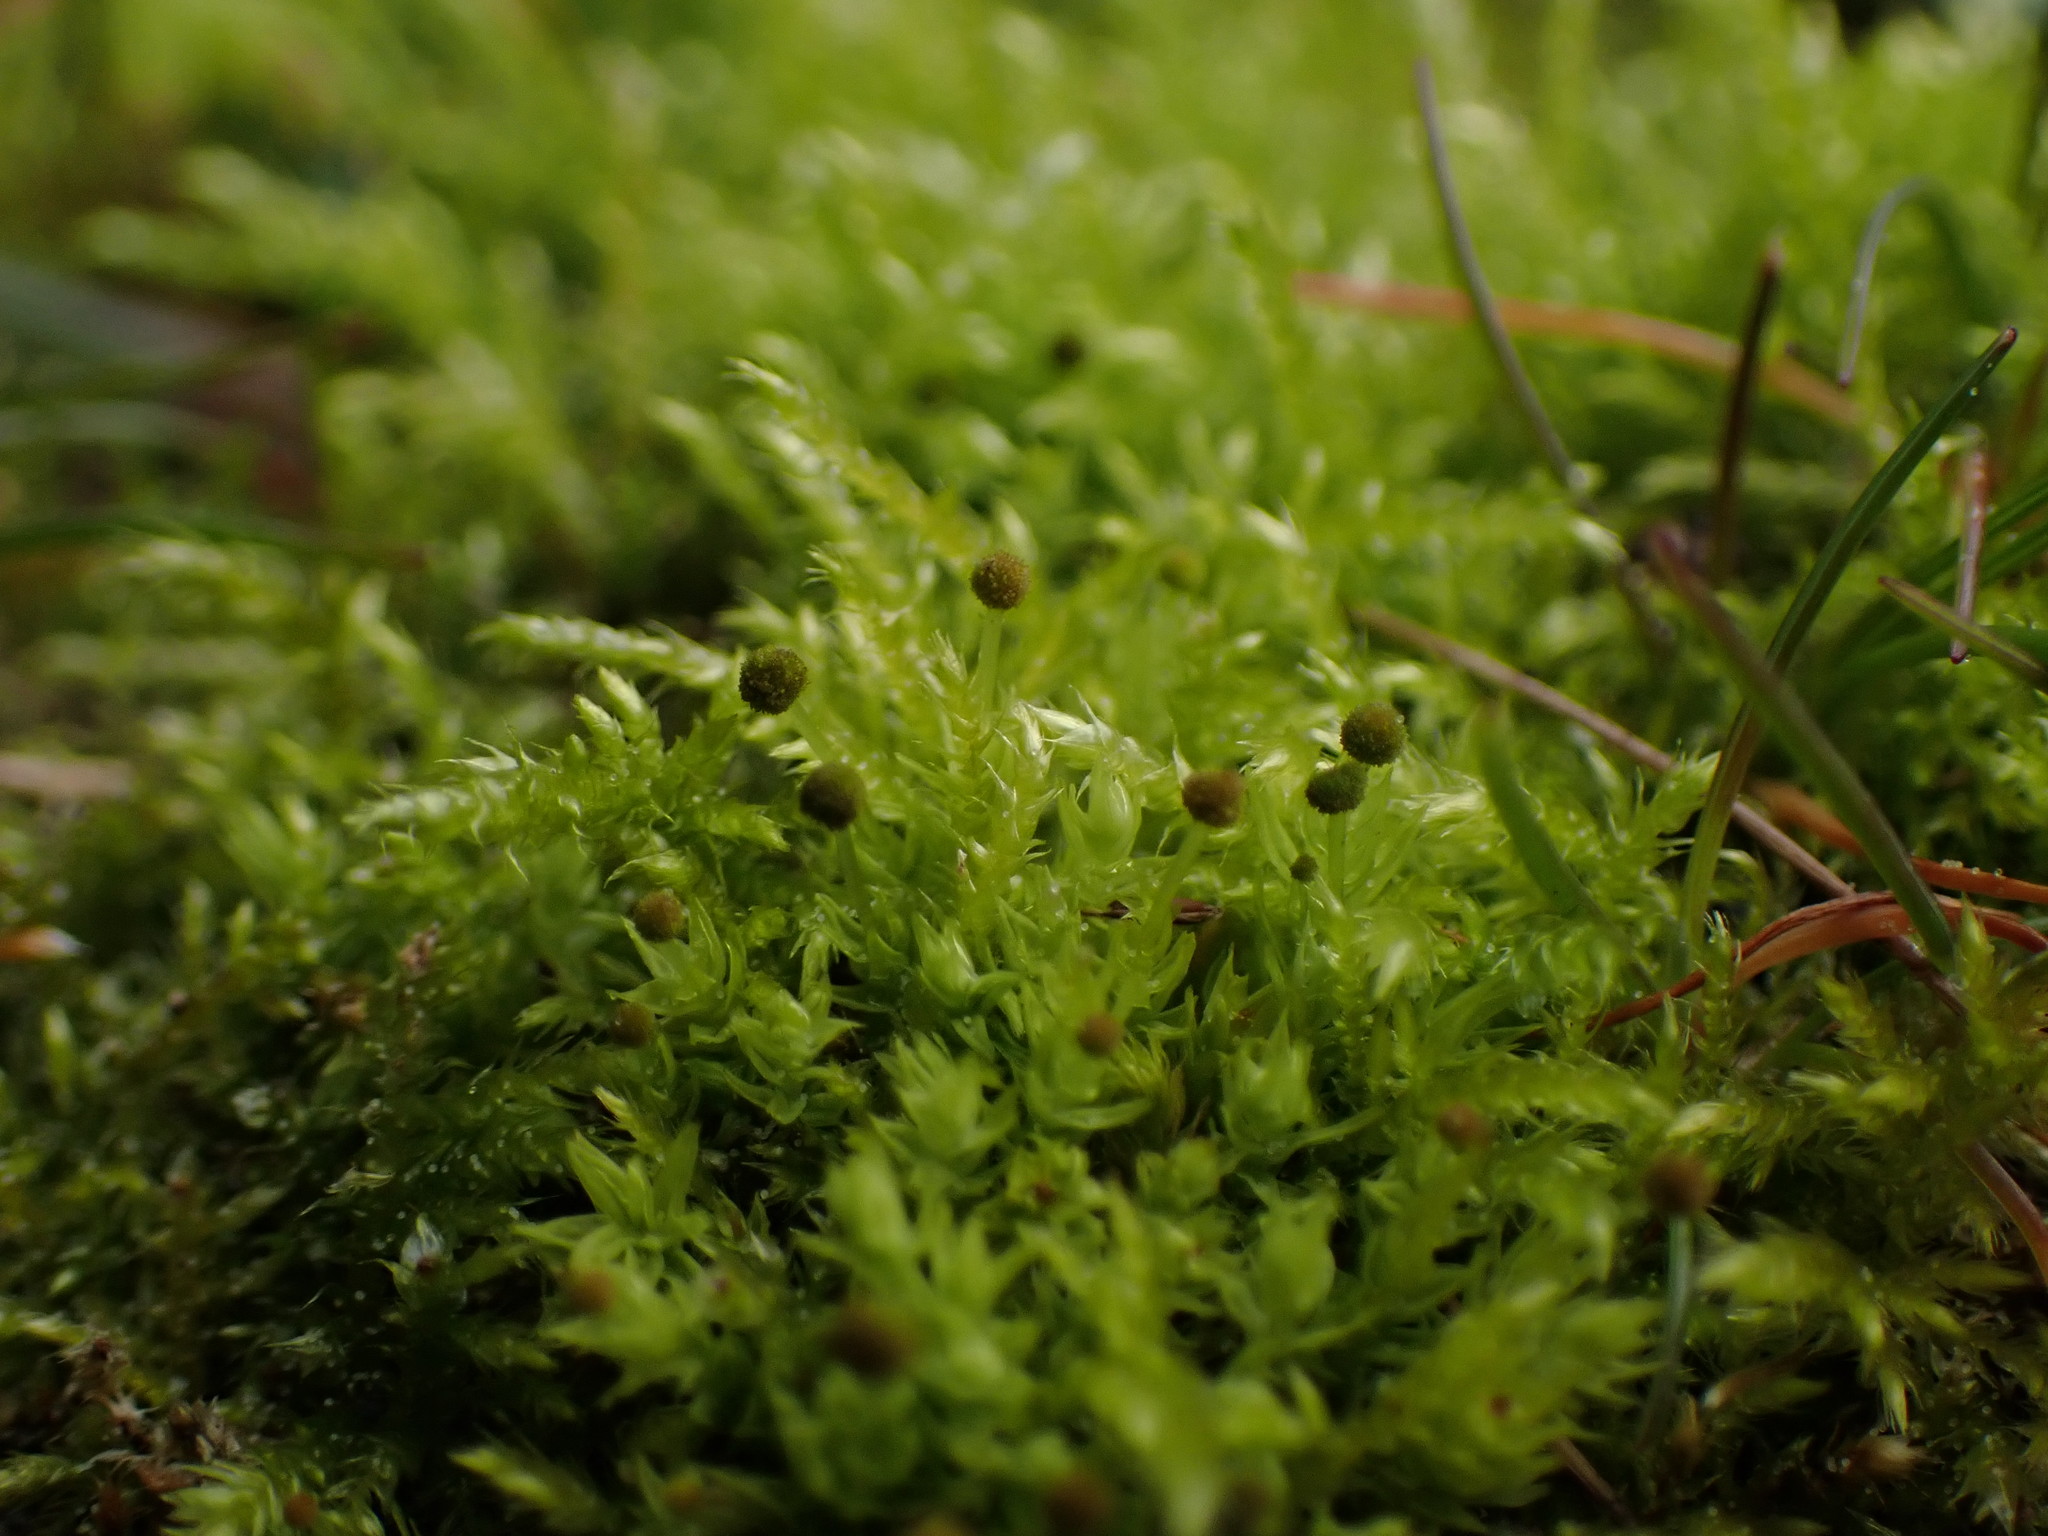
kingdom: Plantae
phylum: Bryophyta
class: Bryopsida
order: Aulacomniales
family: Aulacomniaceae
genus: Aulacomnium
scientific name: Aulacomnium androgynum
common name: Little groove moss
